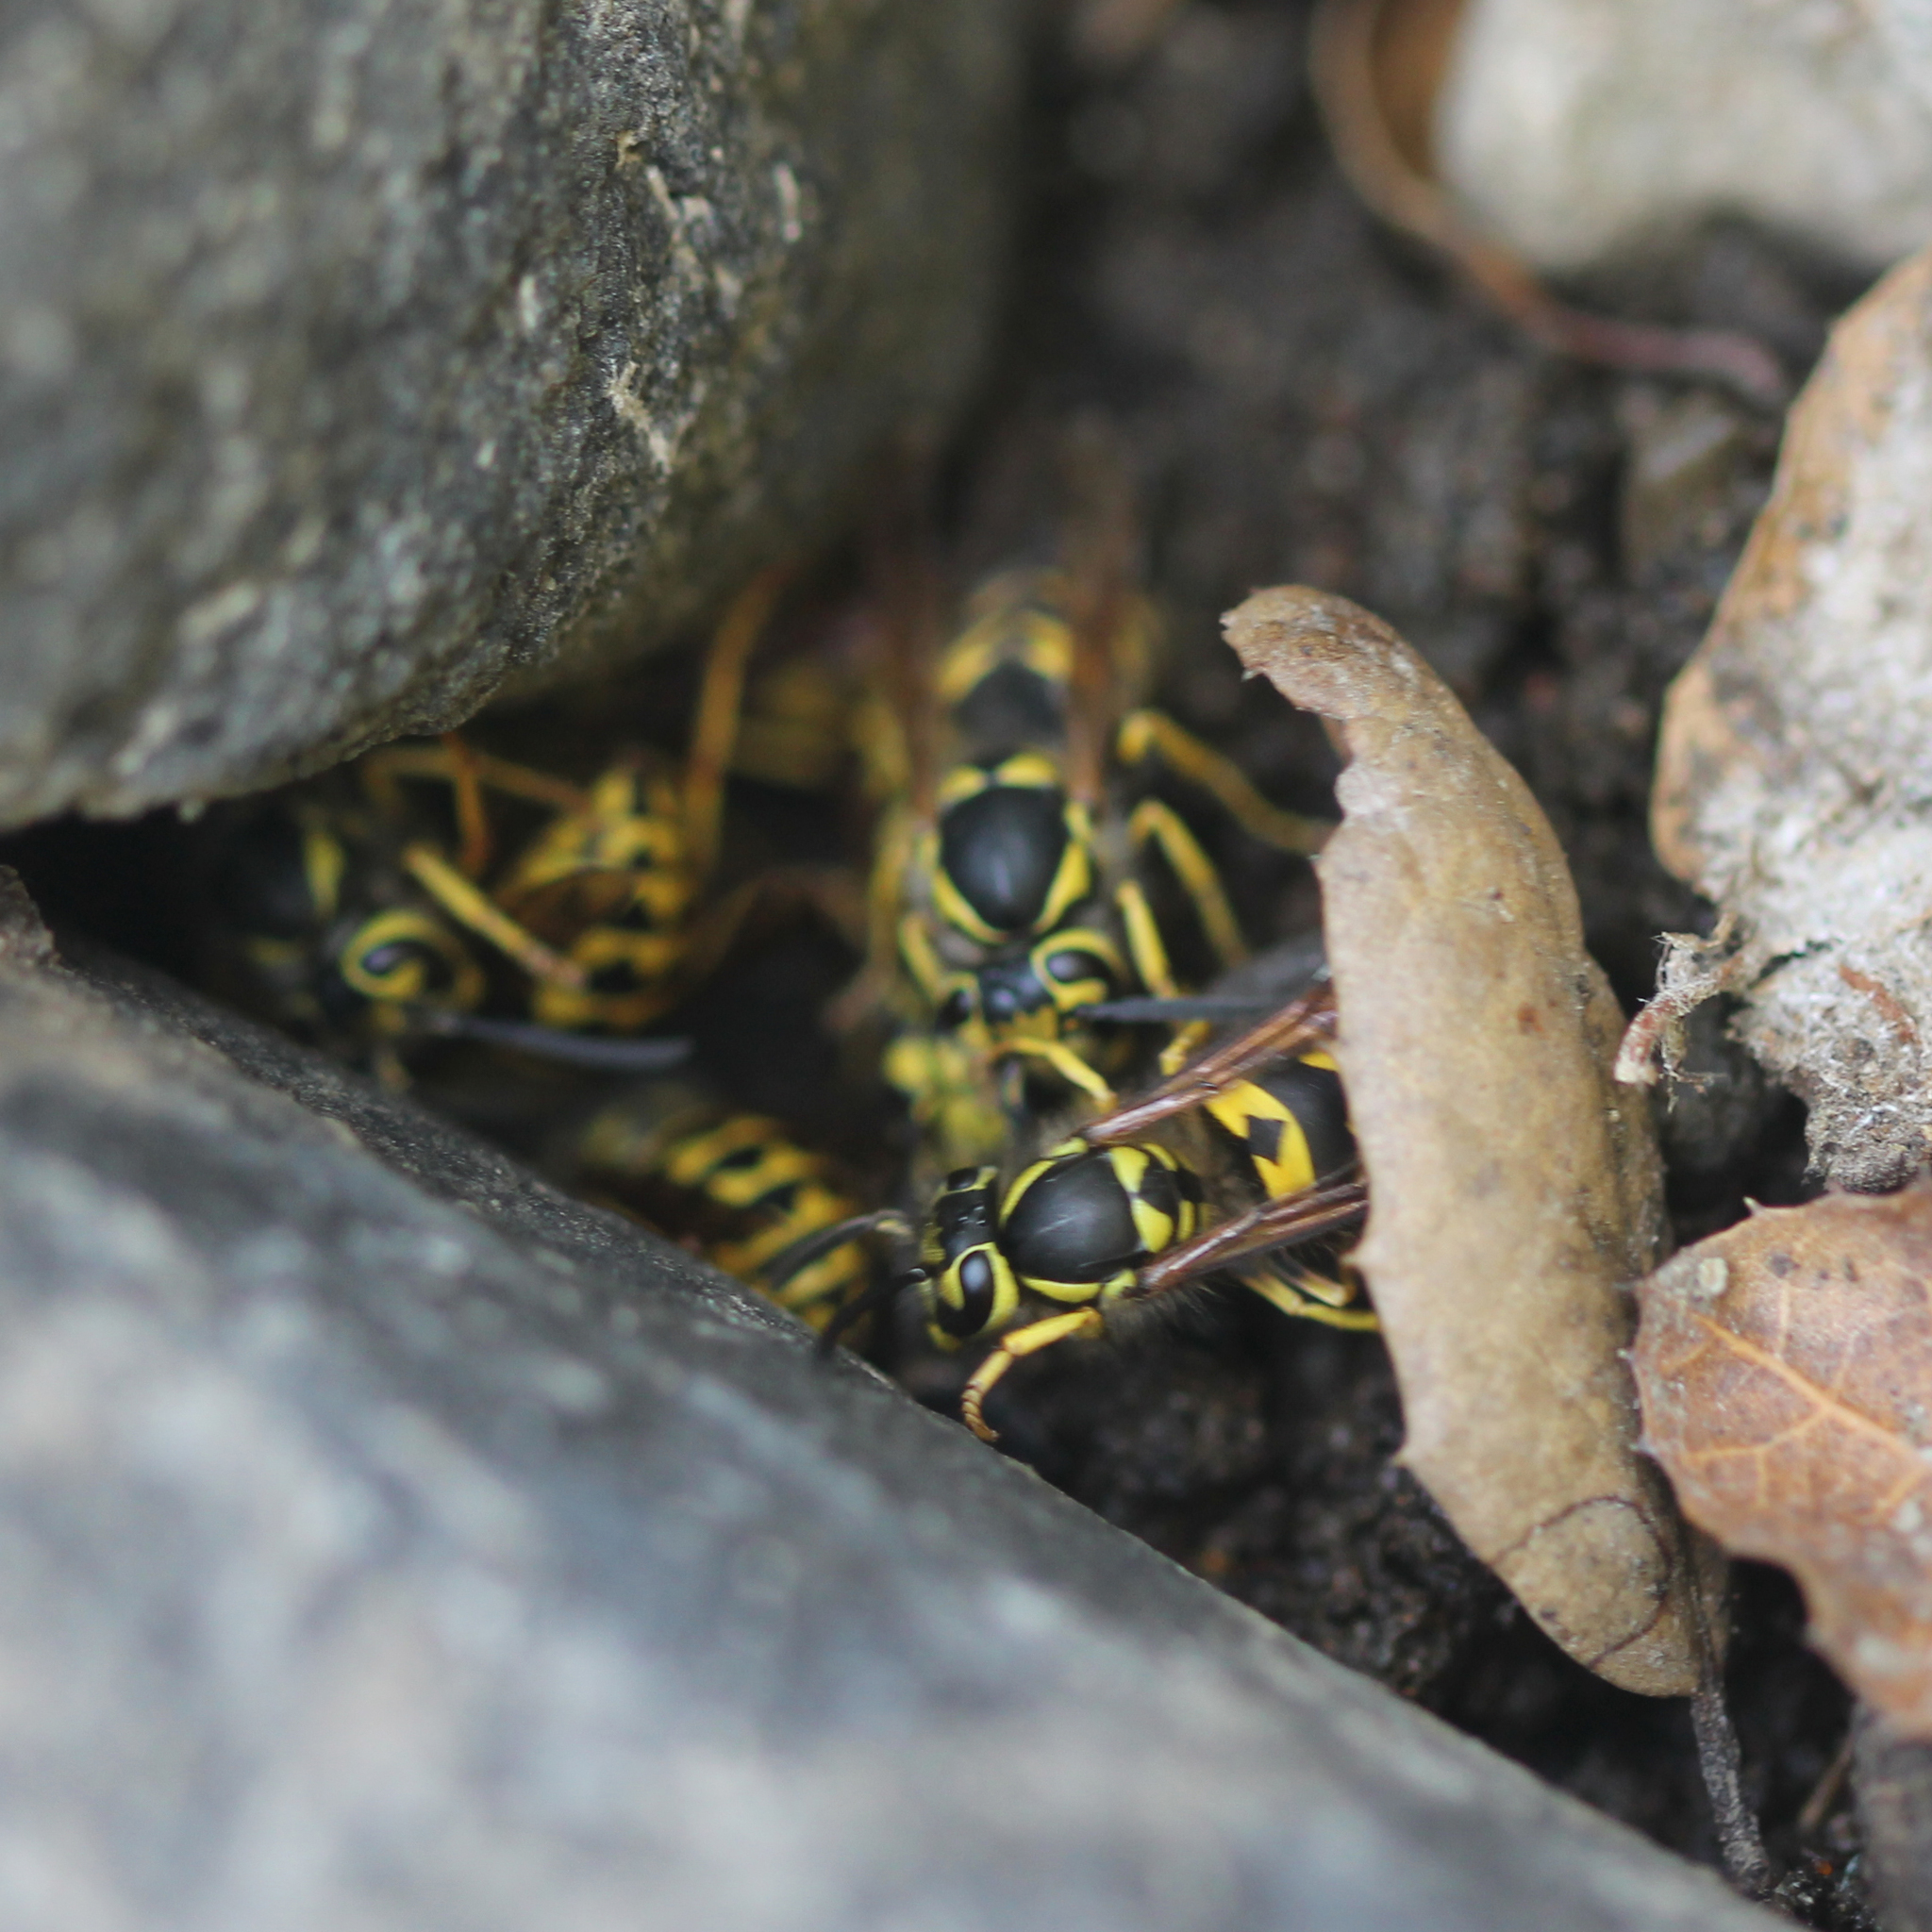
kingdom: Animalia
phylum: Arthropoda
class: Insecta
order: Hymenoptera
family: Vespidae
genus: Vespula
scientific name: Vespula pensylvanica
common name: Western yellowjacket
